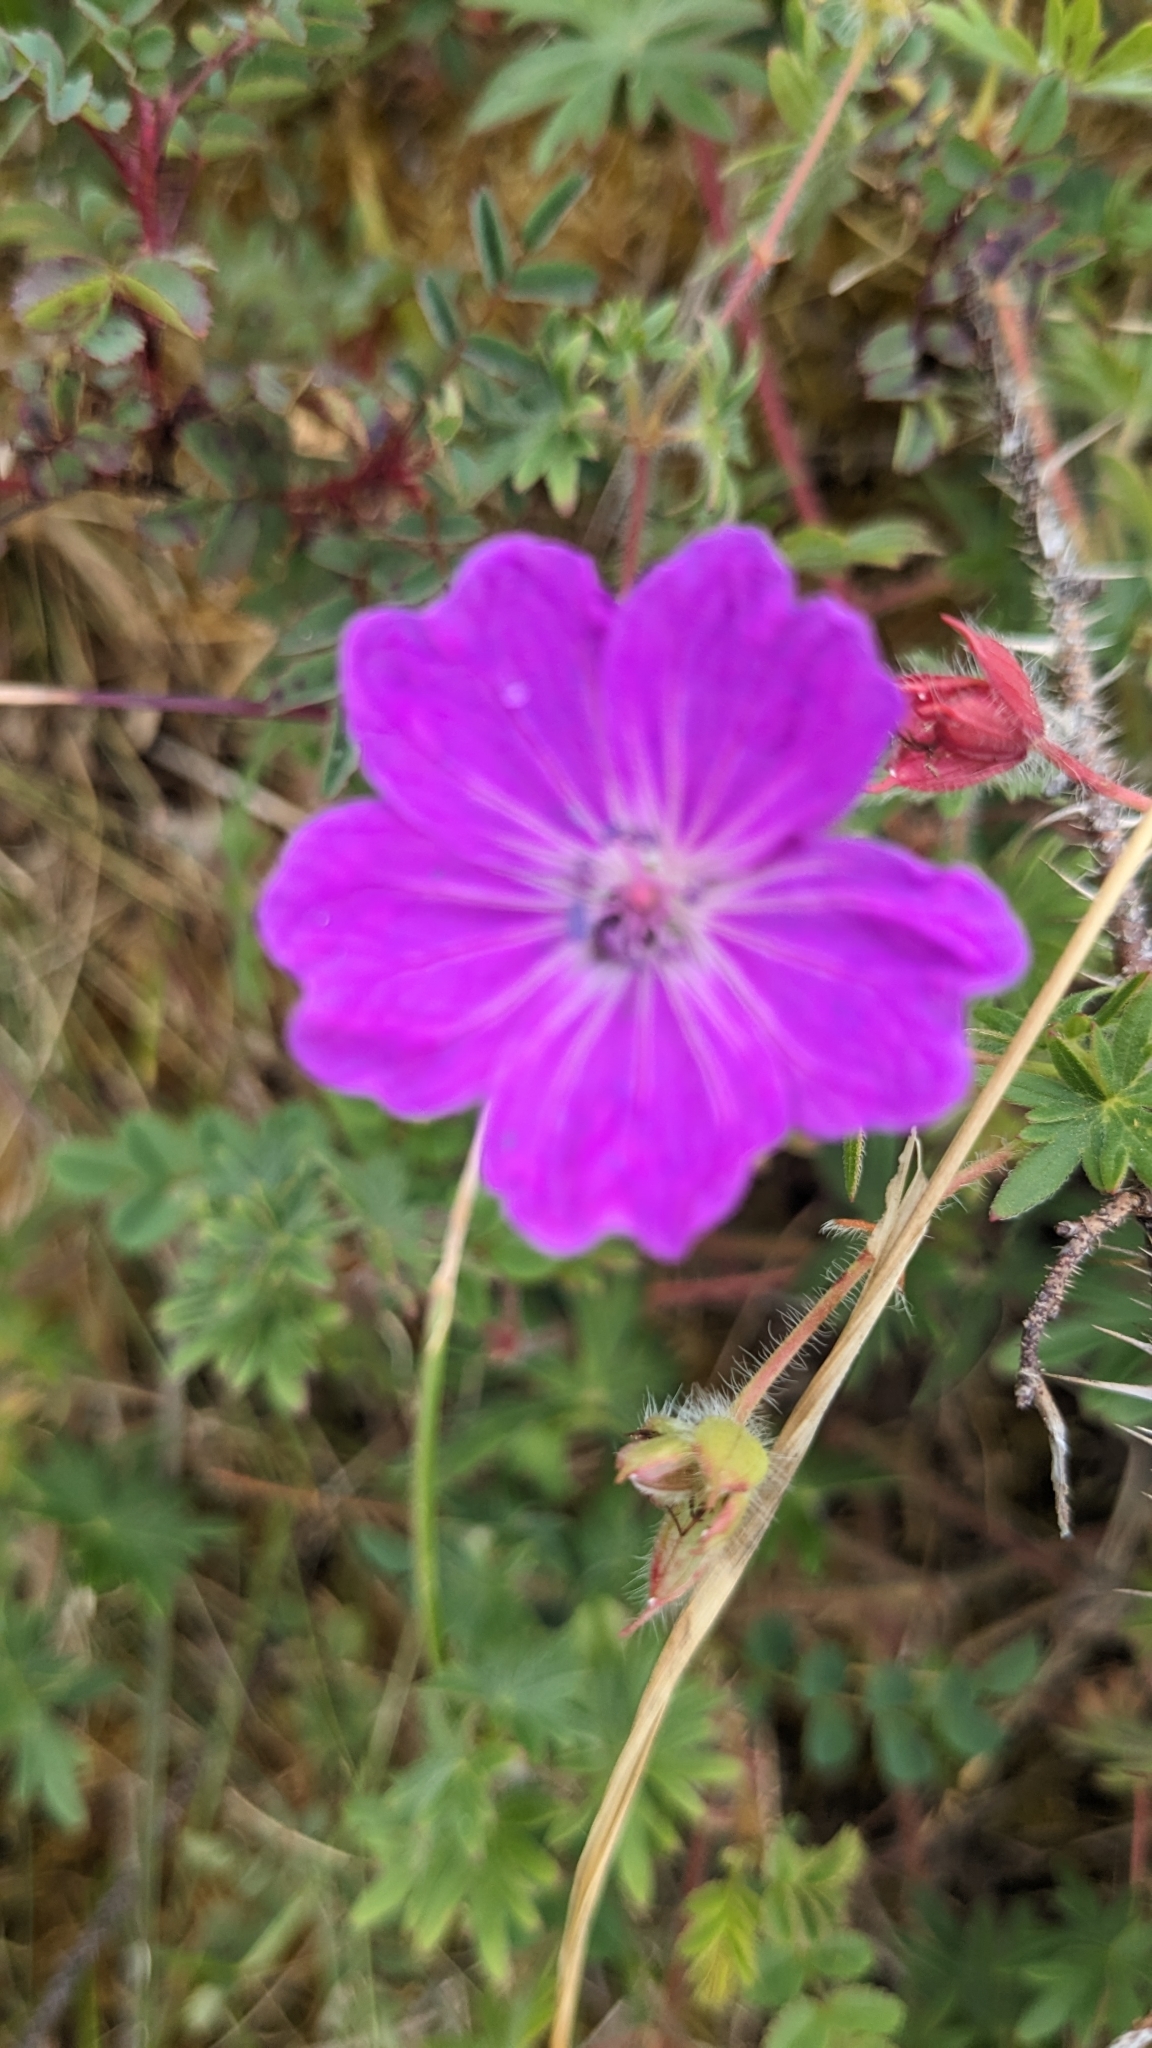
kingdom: Plantae
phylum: Tracheophyta
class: Magnoliopsida
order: Geraniales
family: Geraniaceae
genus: Geranium
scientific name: Geranium sanguineum
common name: Bloody crane's-bill
